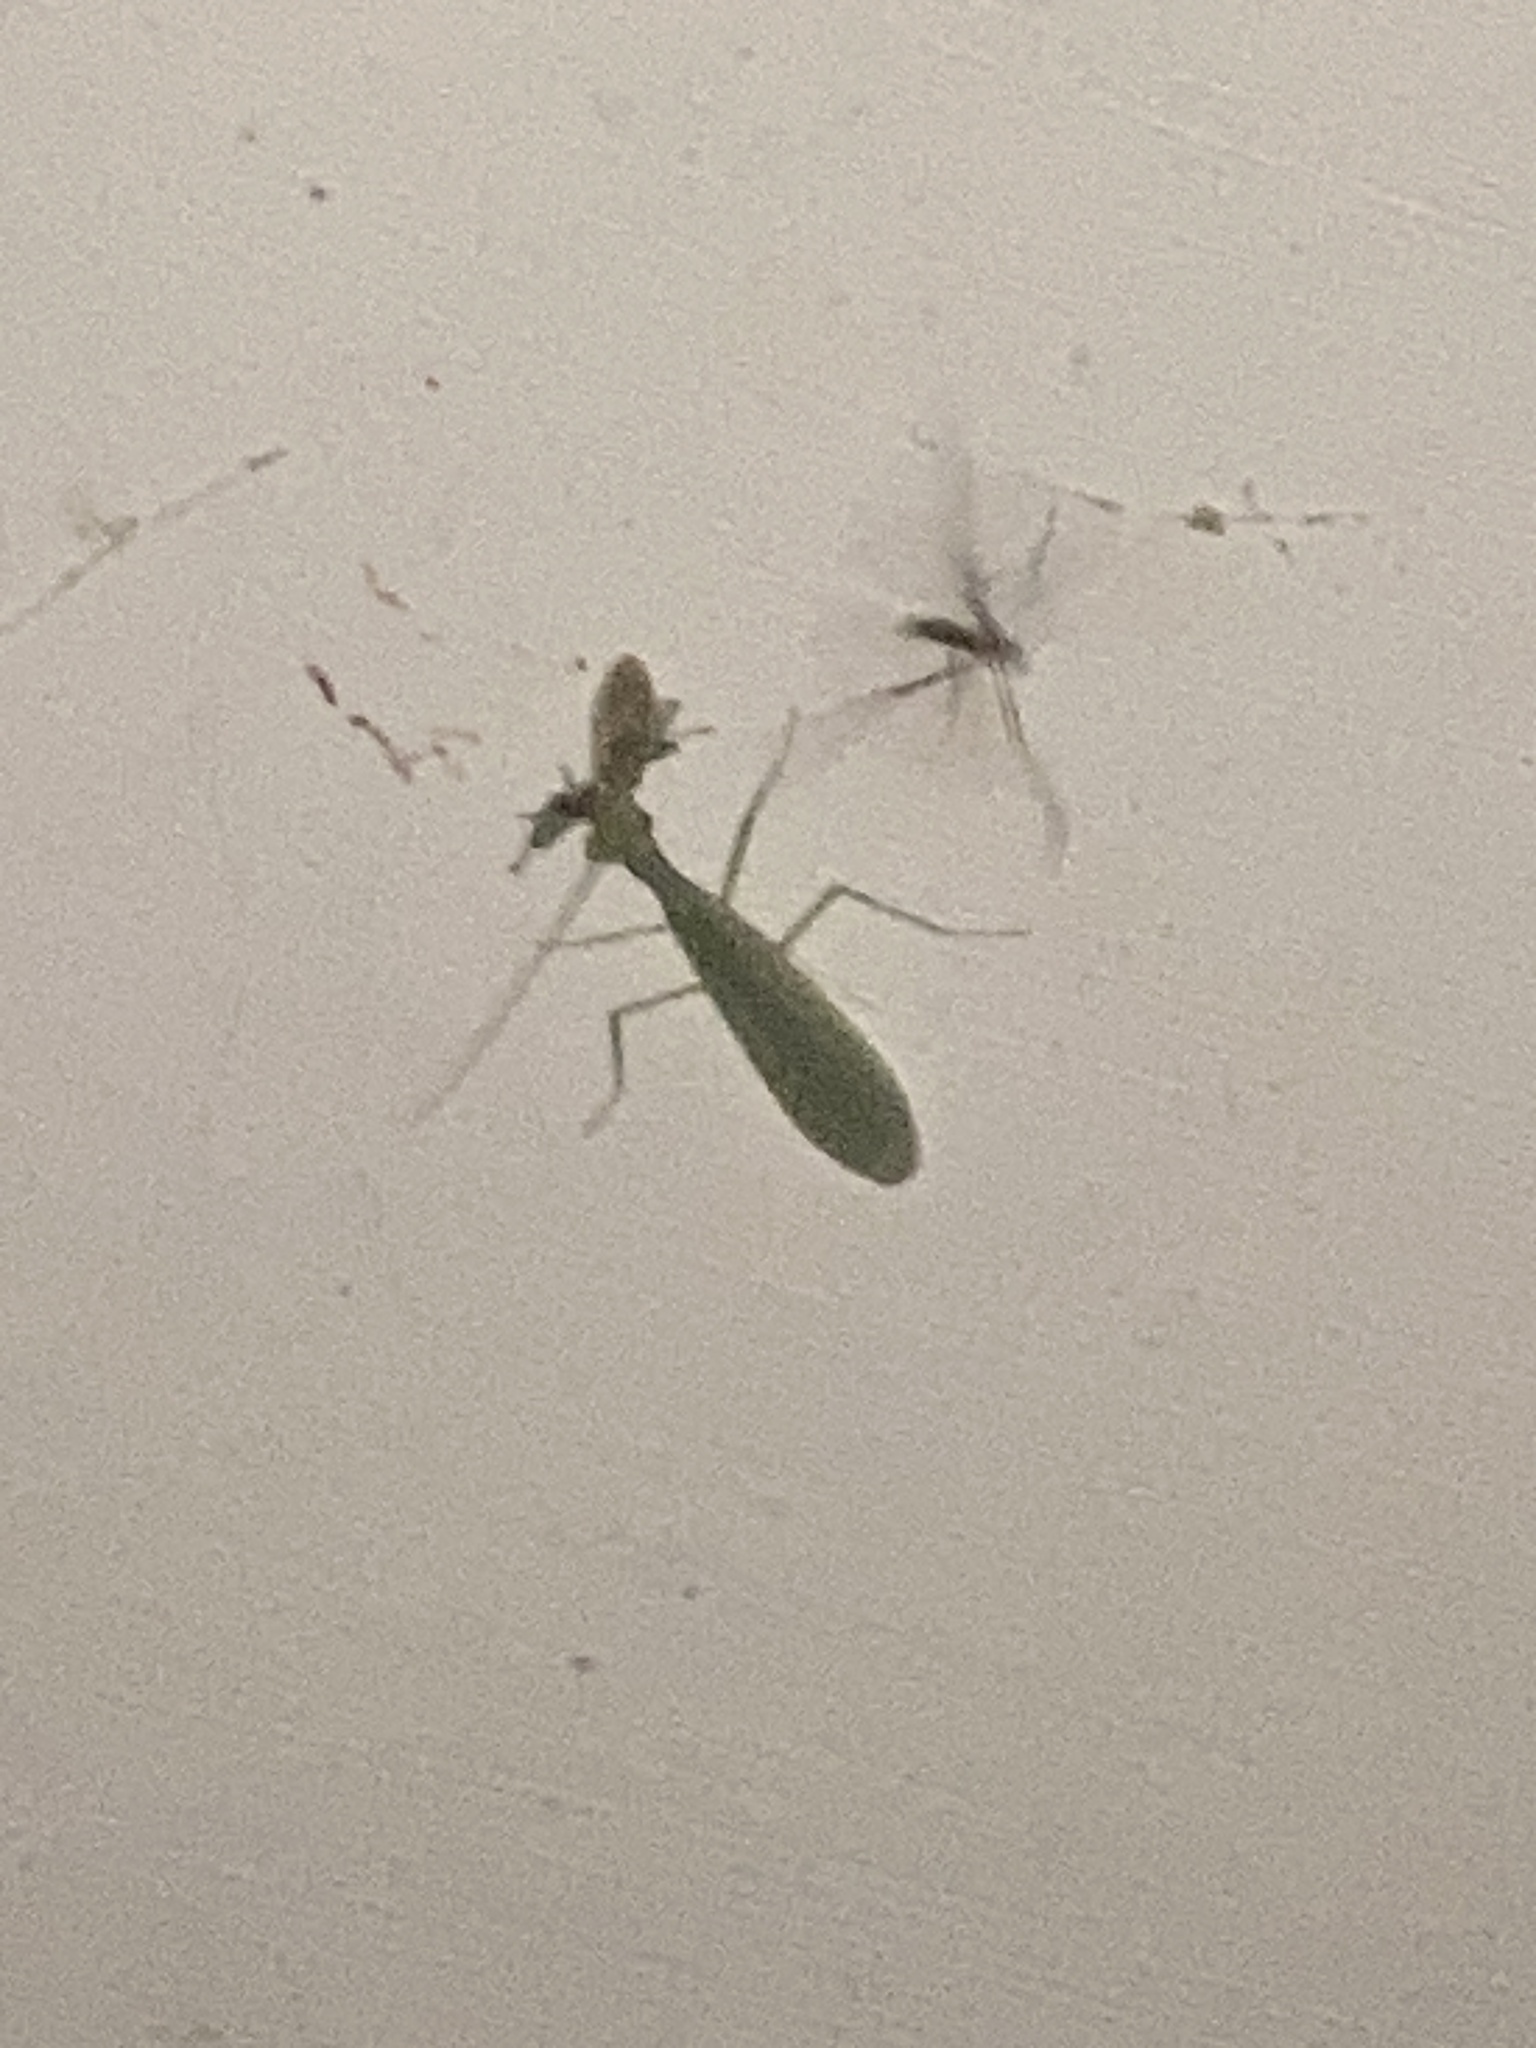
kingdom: Animalia
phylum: Arthropoda
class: Insecta
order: Mantodea
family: Nanomantidae
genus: Kongobatha
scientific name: Kongobatha diademata
